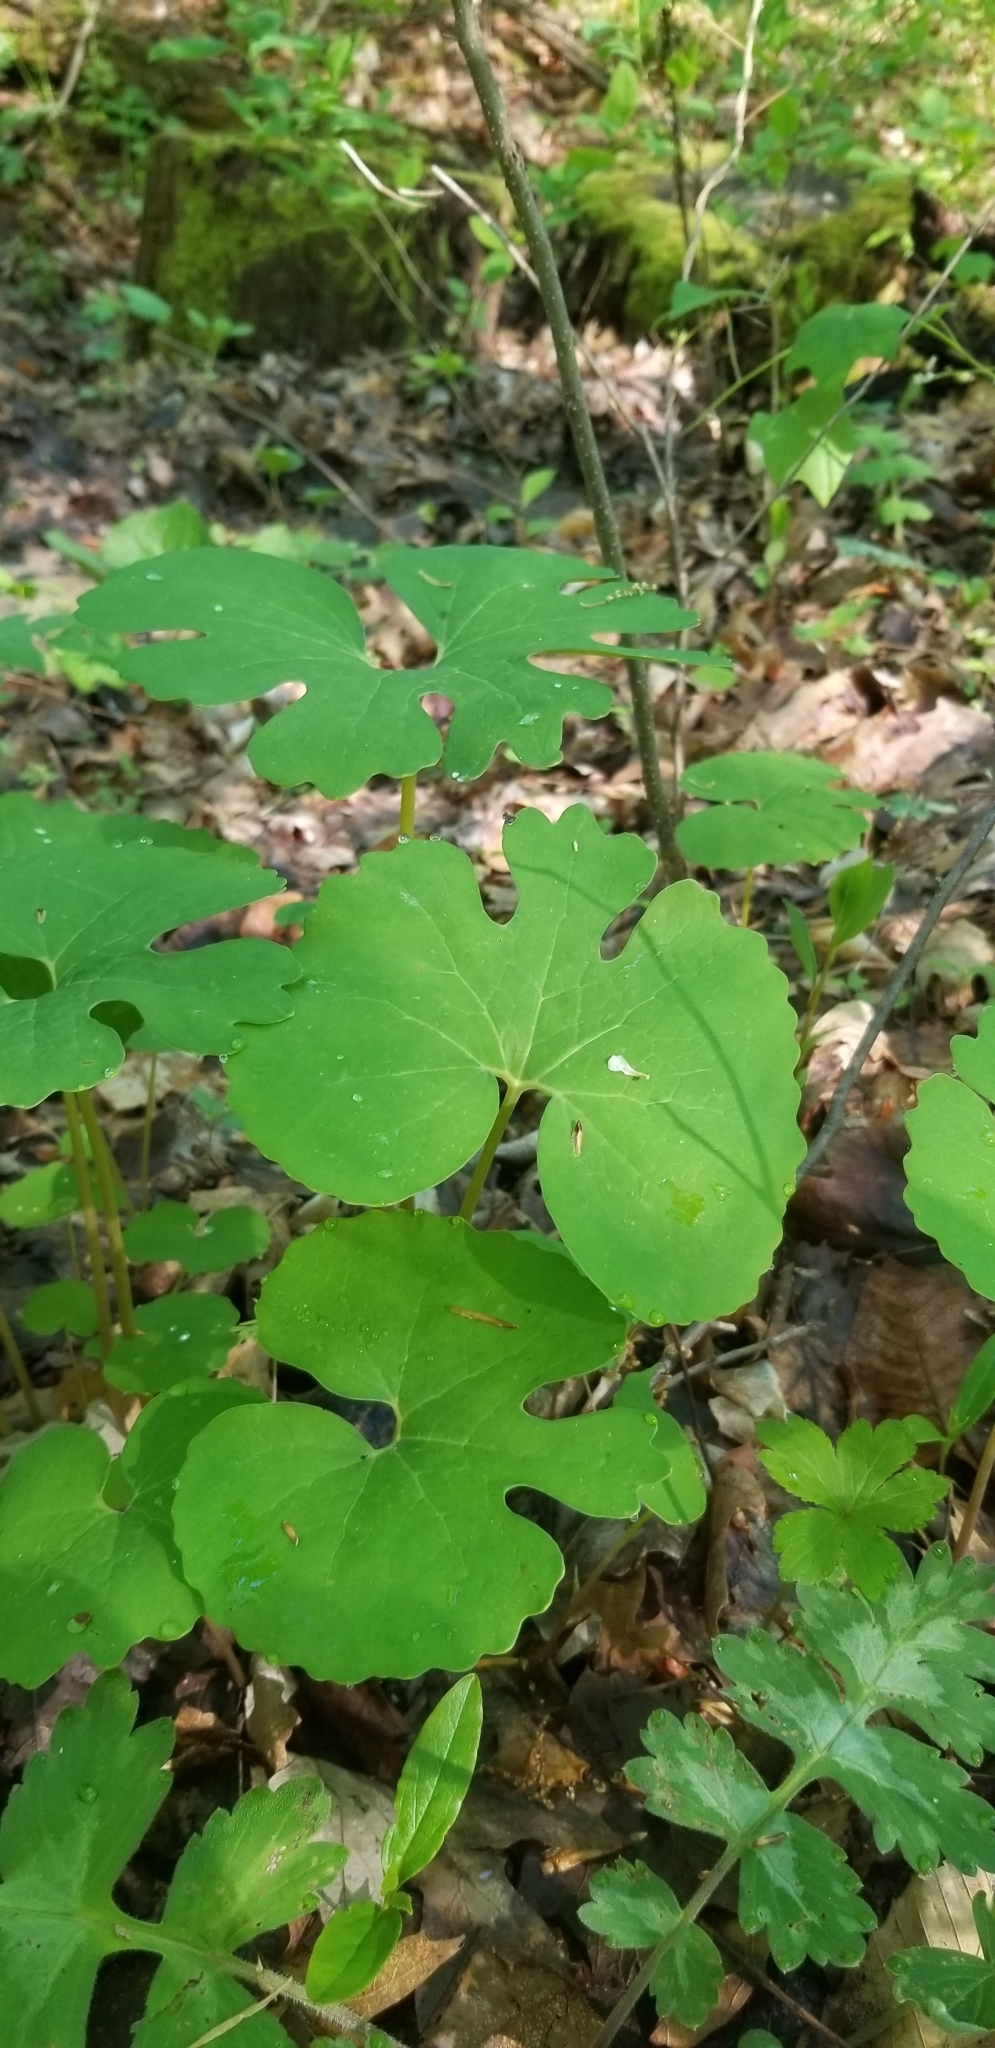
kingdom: Plantae
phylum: Tracheophyta
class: Magnoliopsida
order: Ranunculales
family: Papaveraceae
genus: Sanguinaria
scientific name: Sanguinaria canadensis
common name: Bloodroot
